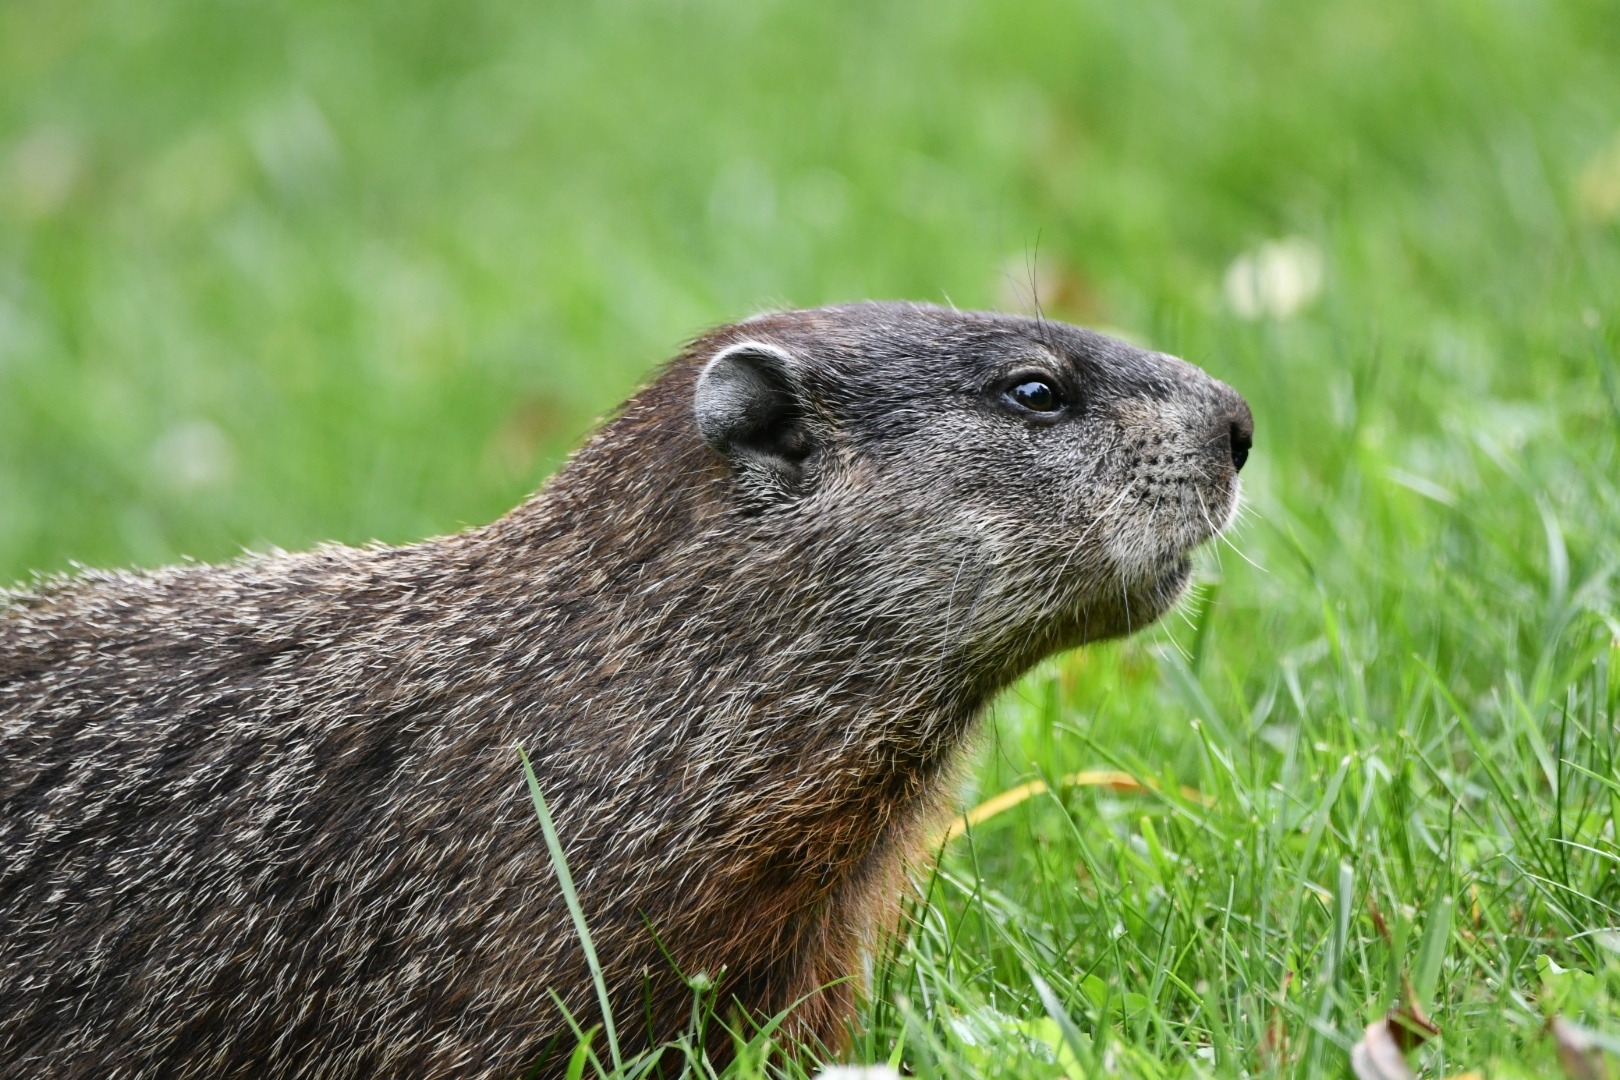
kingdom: Animalia
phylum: Chordata
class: Mammalia
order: Rodentia
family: Sciuridae
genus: Marmota
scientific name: Marmota monax
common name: Groundhog
